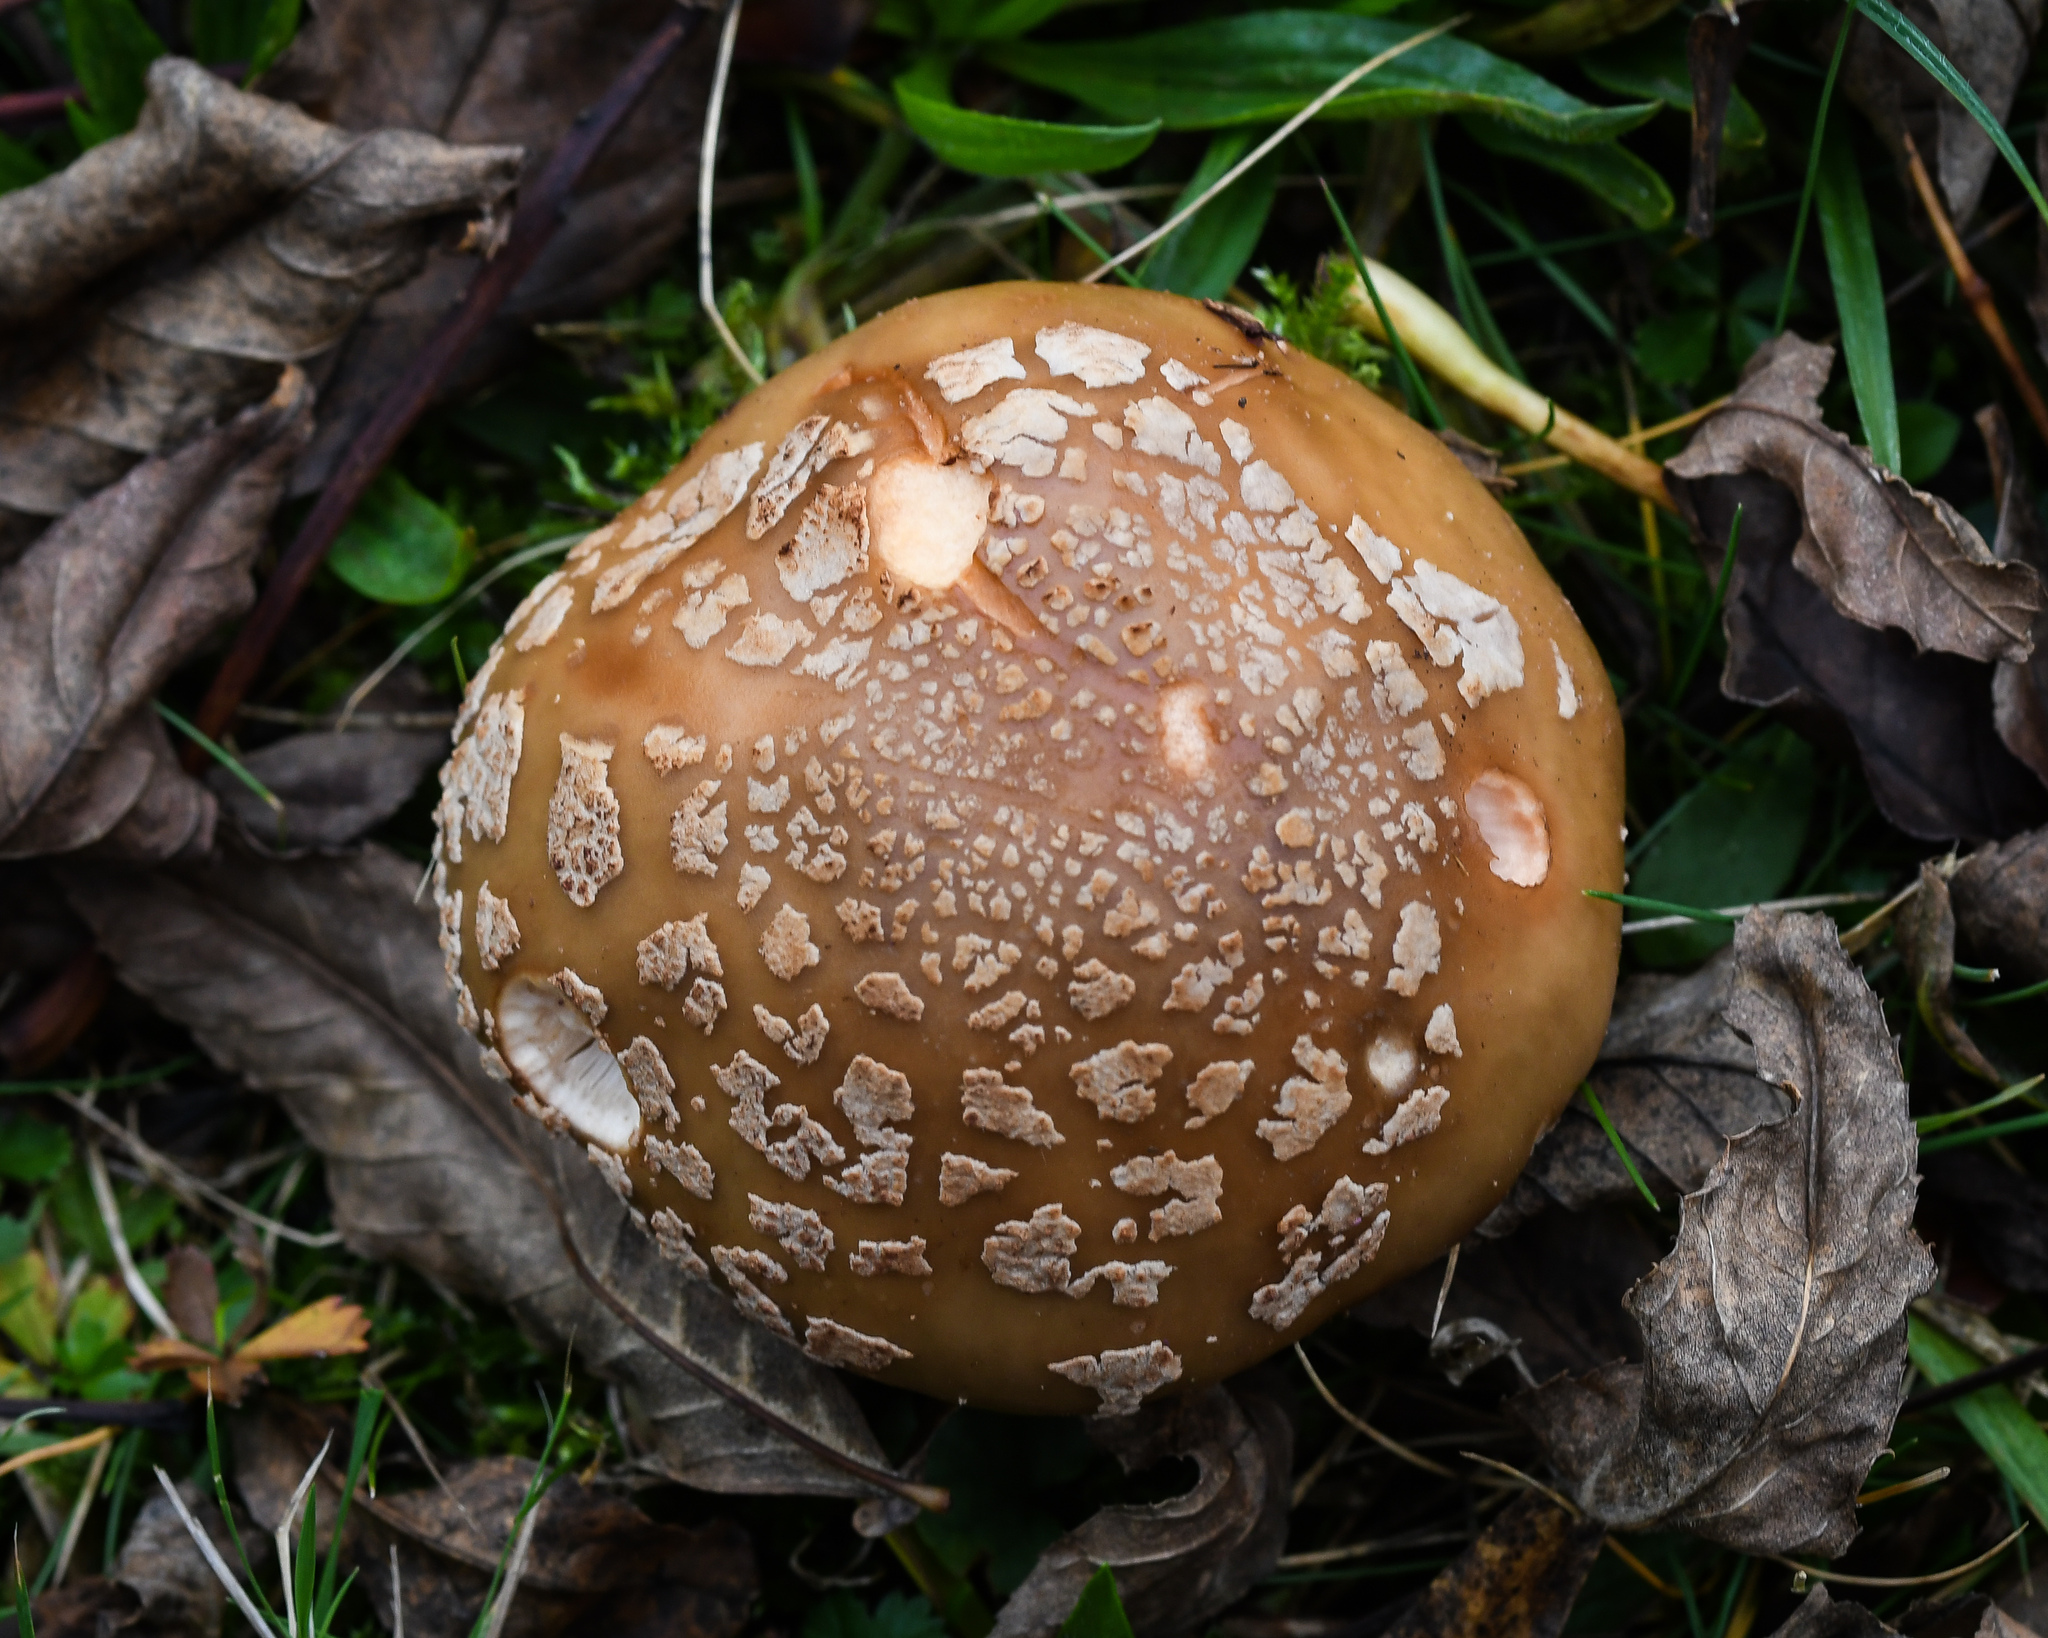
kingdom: Fungi
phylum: Basidiomycota
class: Agaricomycetes
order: Agaricales
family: Amanitaceae
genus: Amanita
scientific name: Amanita rubescens
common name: Blusher
